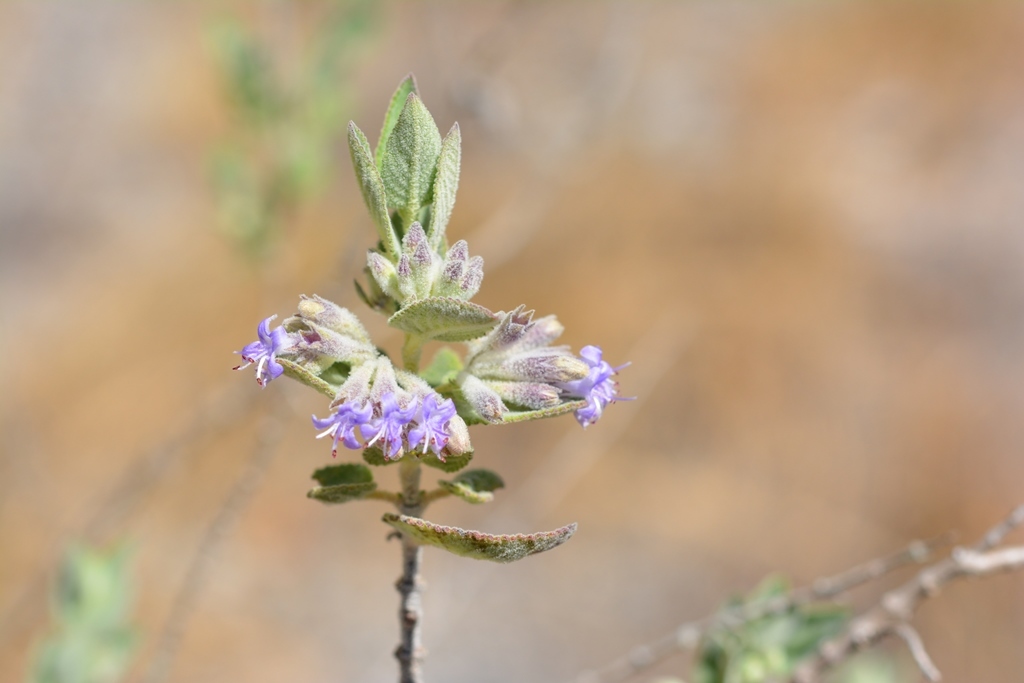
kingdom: Plantae
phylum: Tracheophyta
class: Magnoliopsida
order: Lamiales
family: Lamiaceae
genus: Condea
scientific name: Condea tomentosa
